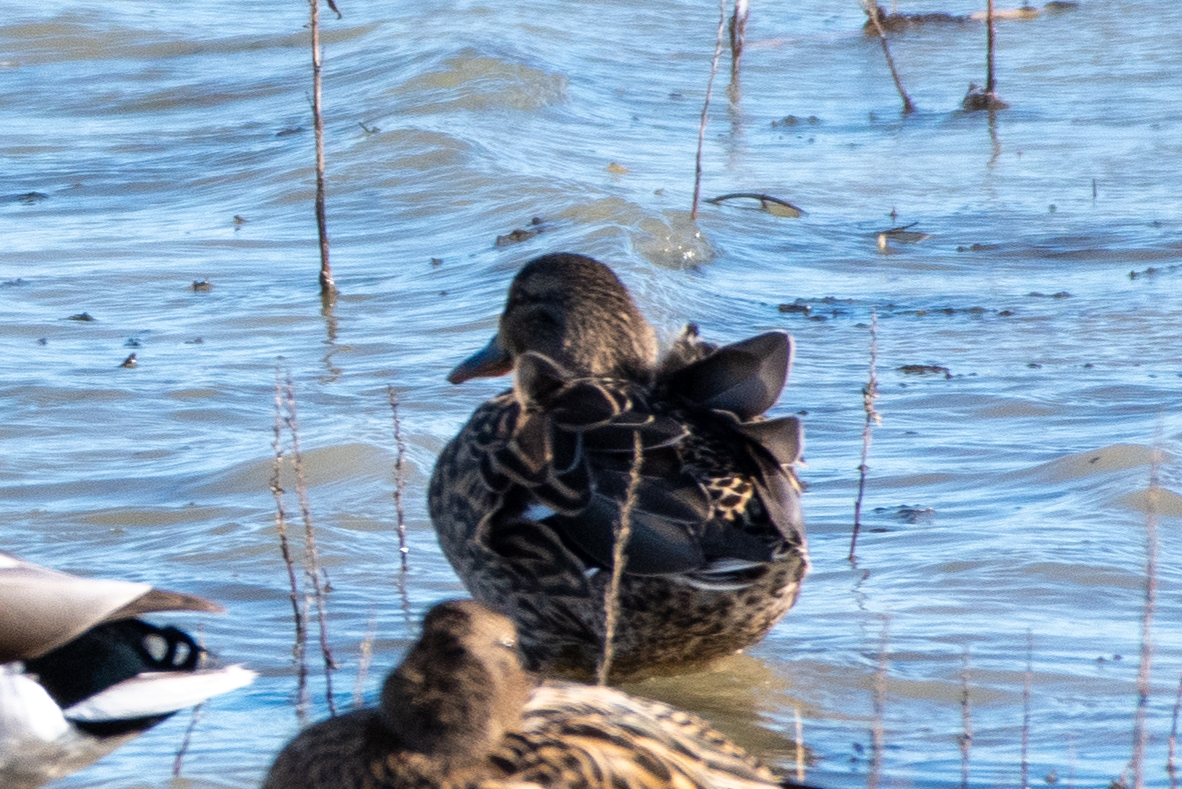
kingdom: Animalia
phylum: Chordata
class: Aves
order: Anseriformes
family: Anatidae
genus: Anas
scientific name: Anas platyrhynchos
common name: Mallard
